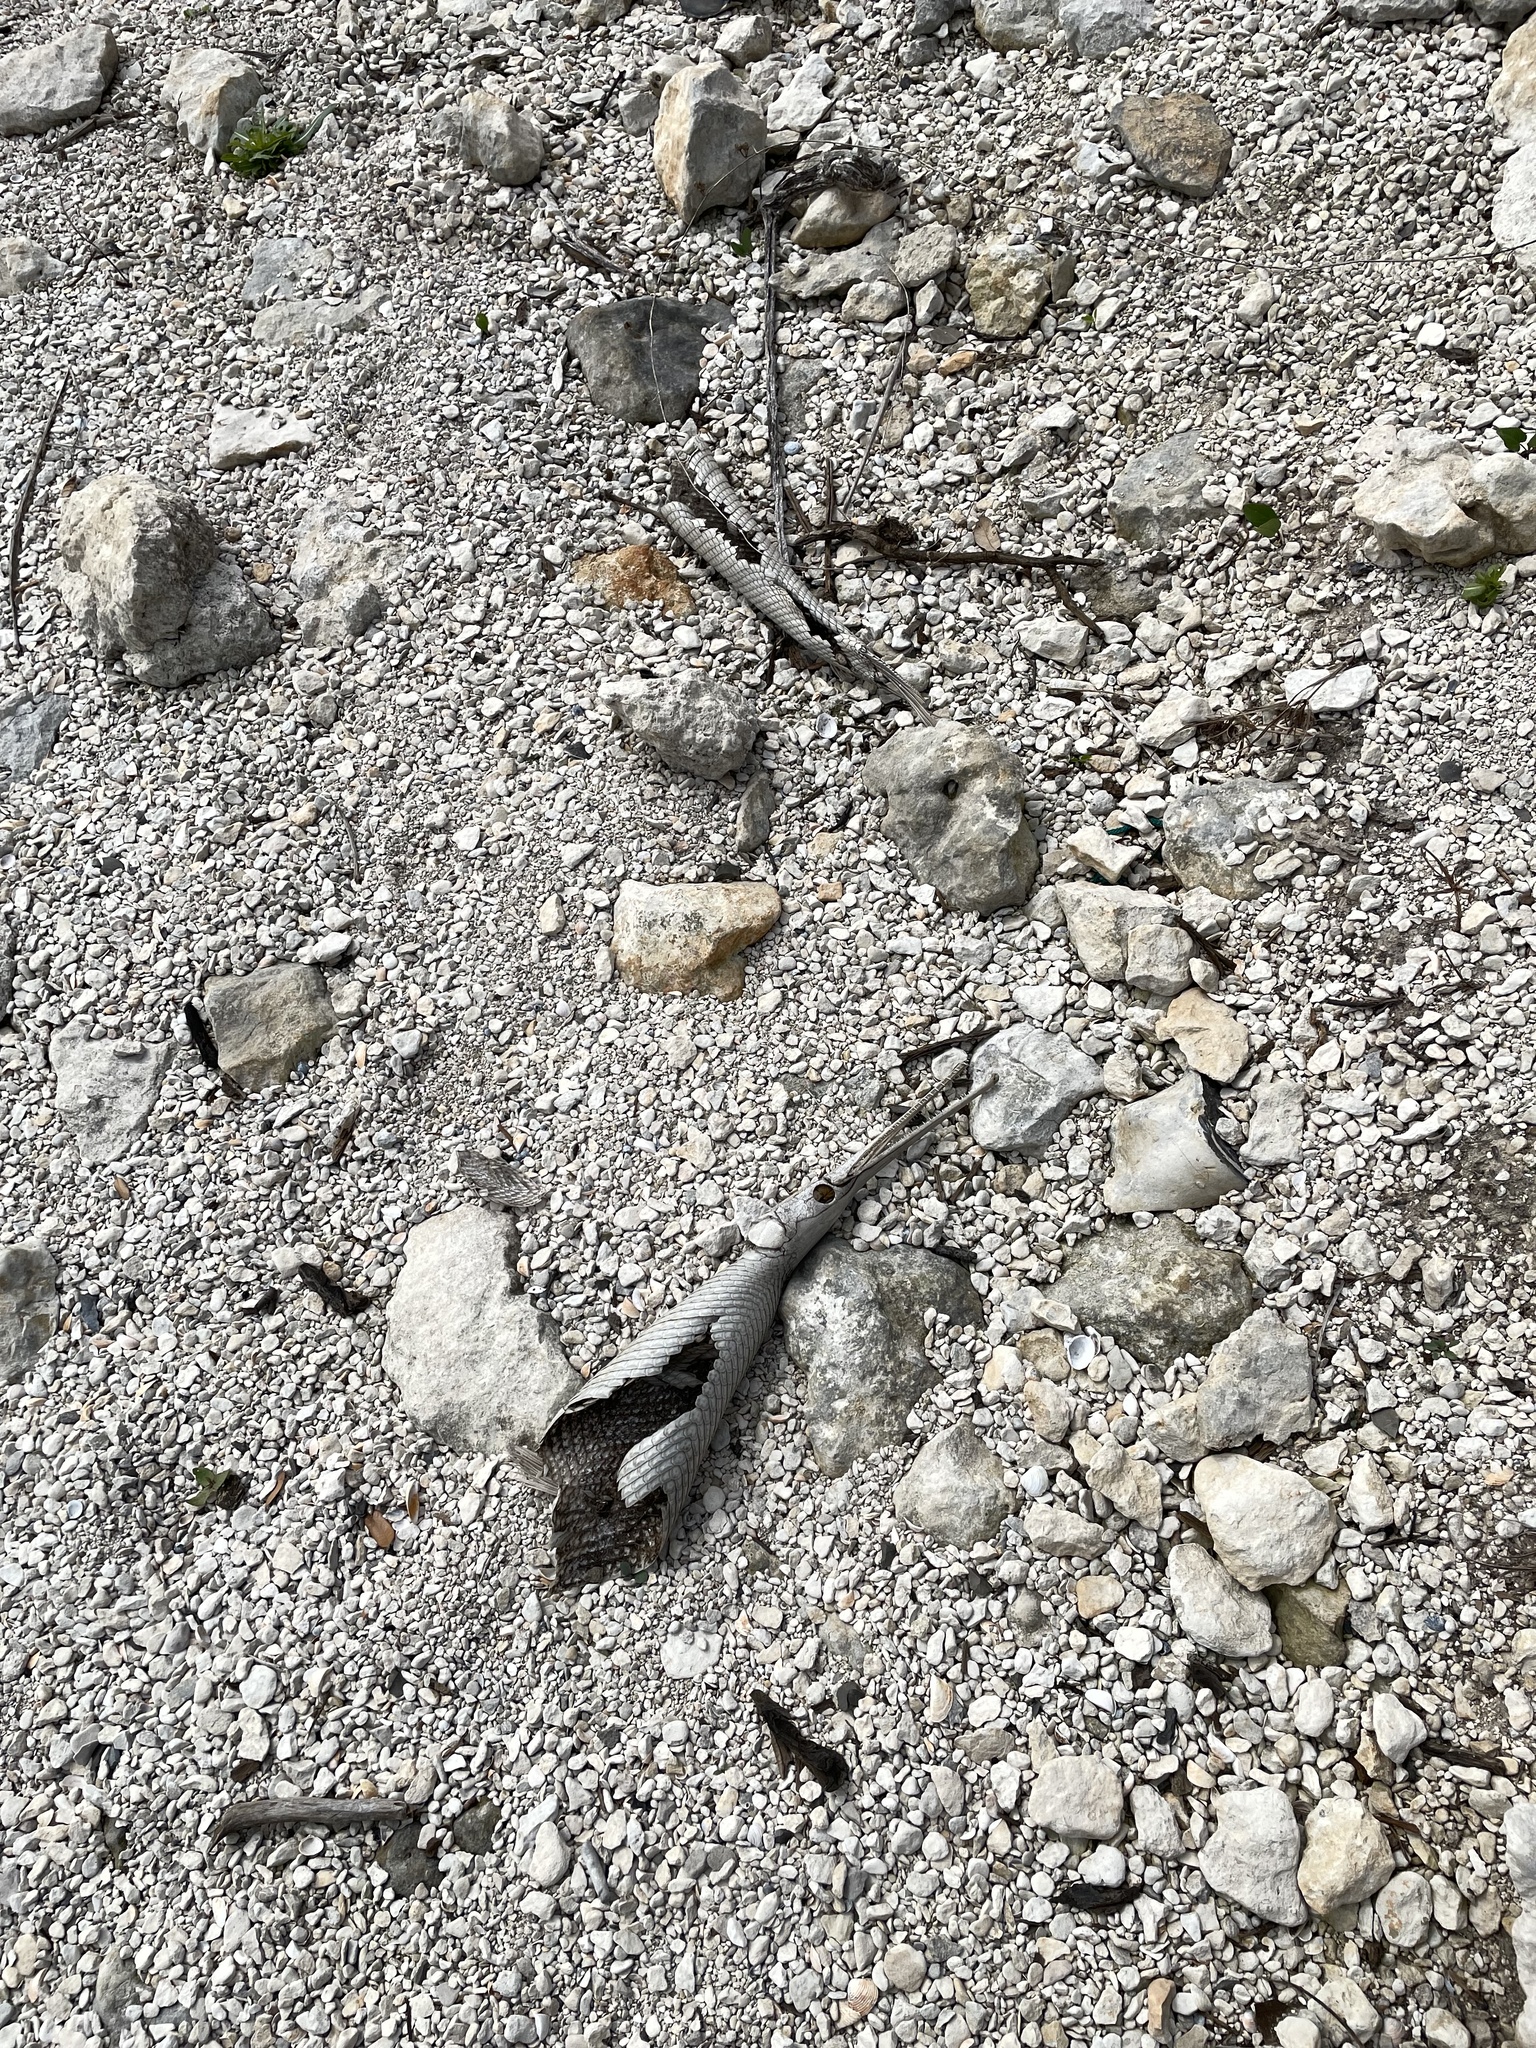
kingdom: Animalia
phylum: Chordata
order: Lepisosteiformes
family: Lepisosteidae
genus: Lepisosteus
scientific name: Lepisosteus osseus
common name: Longnose gar
